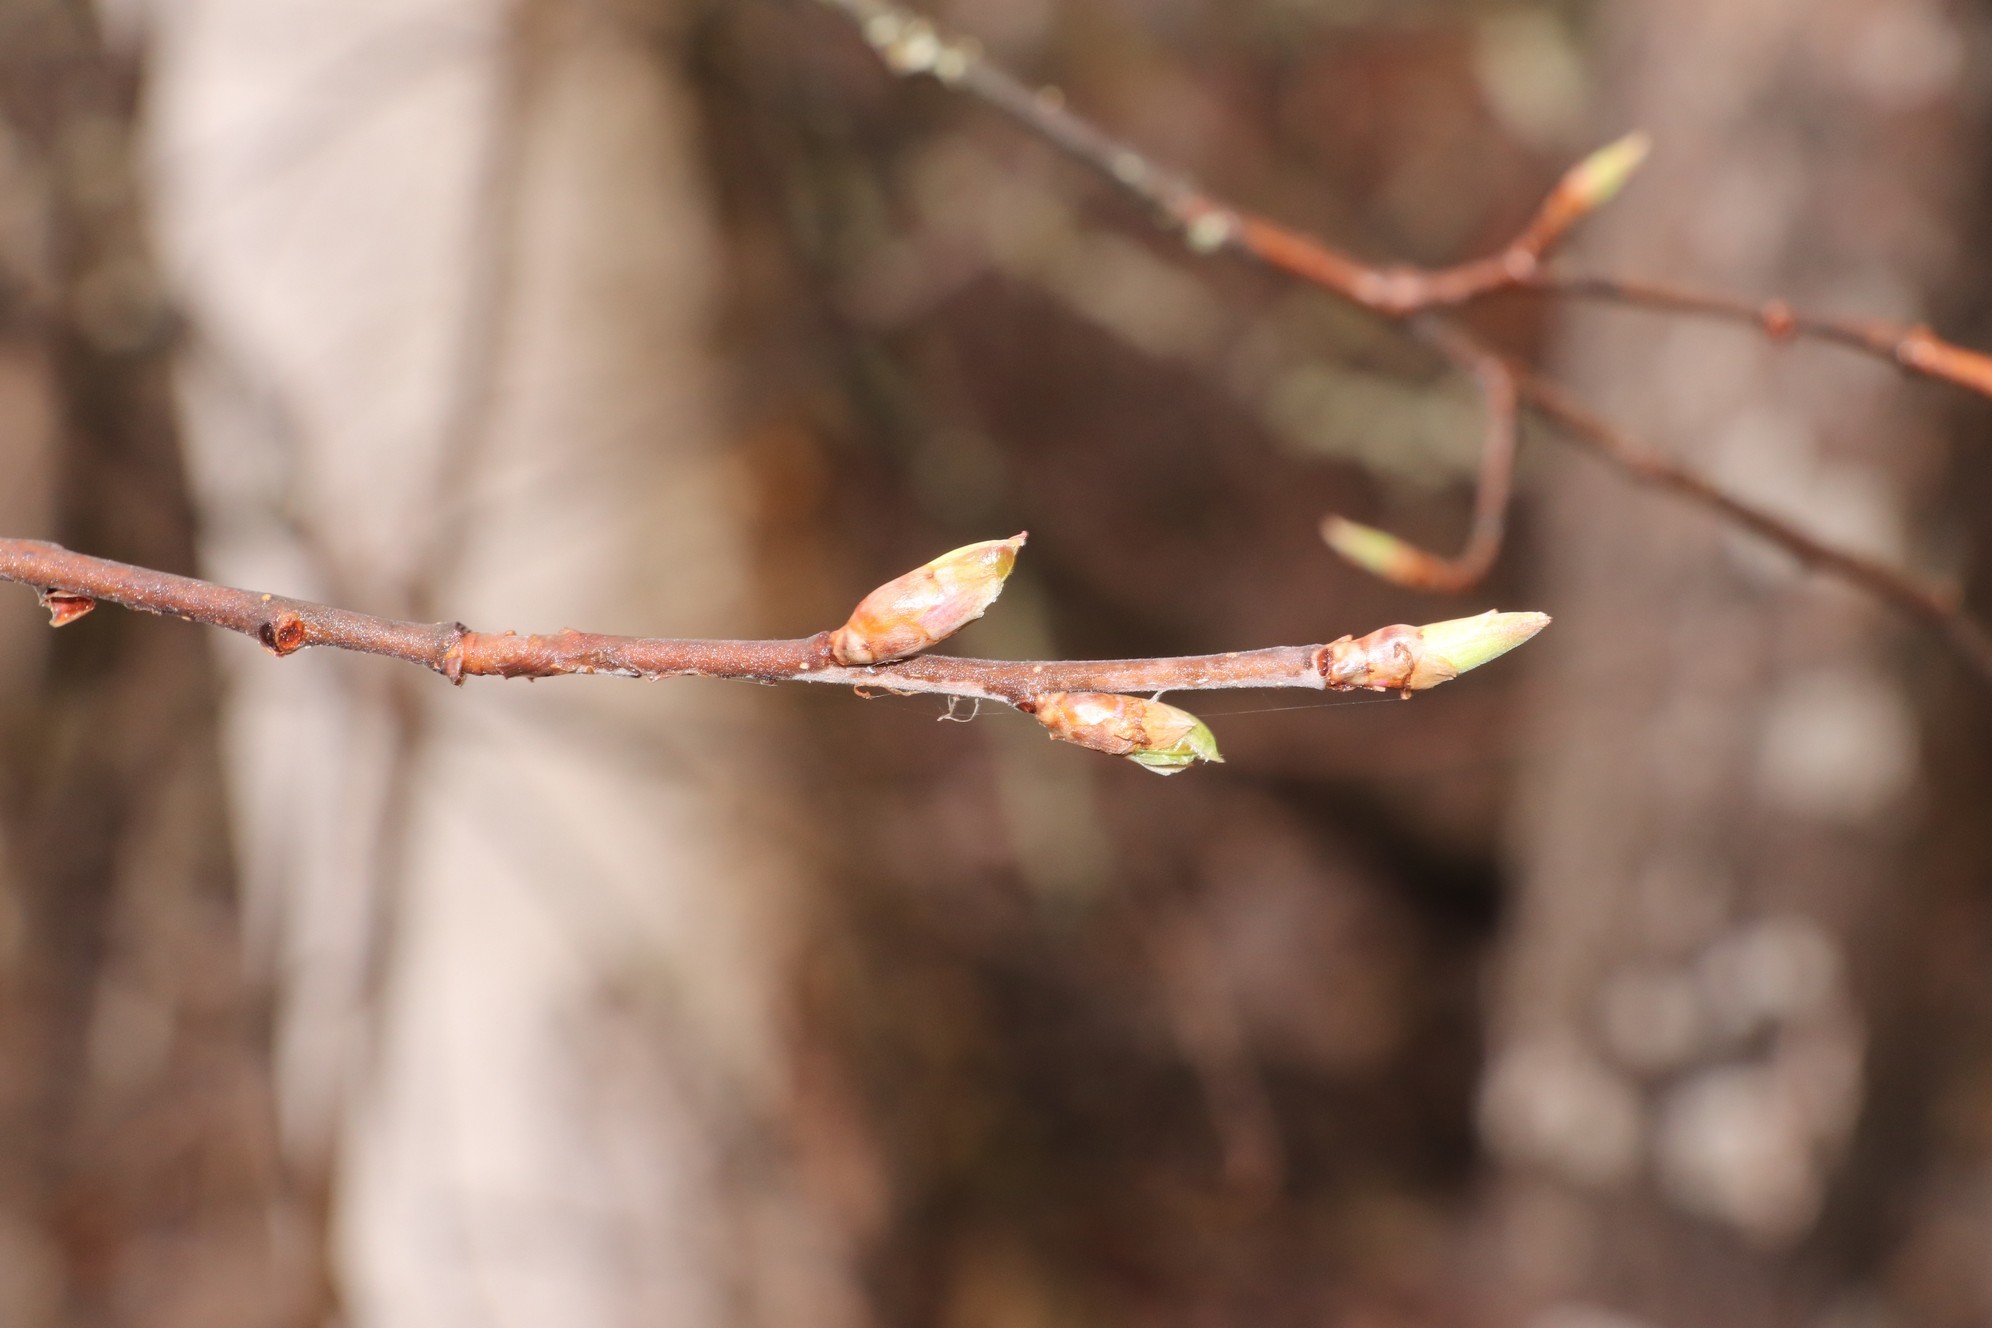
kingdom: Plantae
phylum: Tracheophyta
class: Magnoliopsida
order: Rosales
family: Rosaceae
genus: Prunus
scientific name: Prunus padus
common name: Bird cherry
